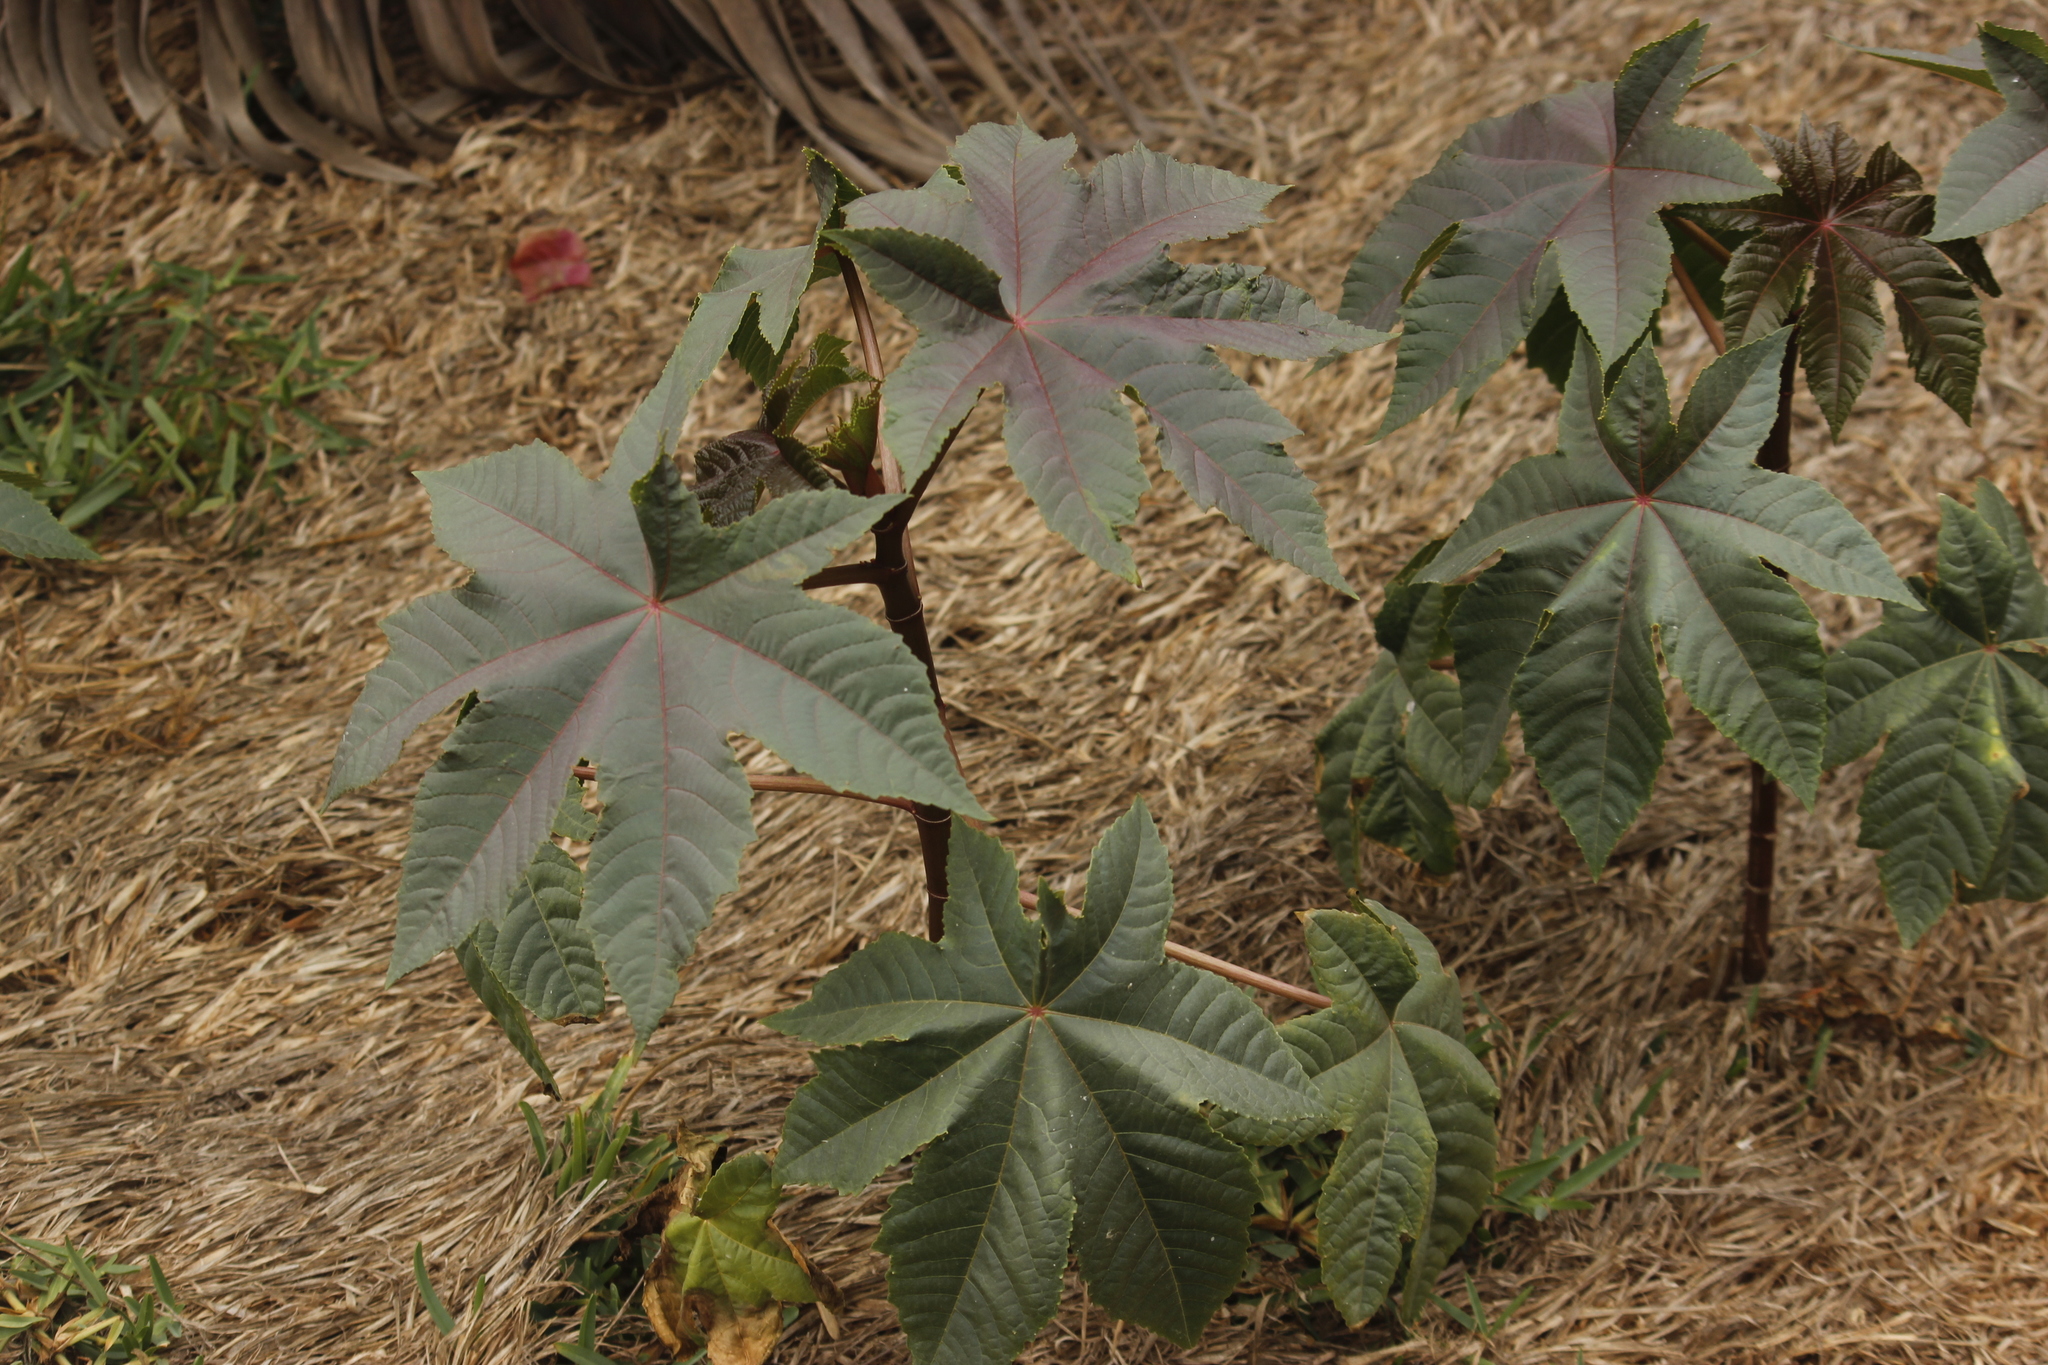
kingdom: Plantae
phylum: Tracheophyta
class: Magnoliopsida
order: Malpighiales
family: Euphorbiaceae
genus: Ricinus
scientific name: Ricinus communis
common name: Castor-oil-plant
